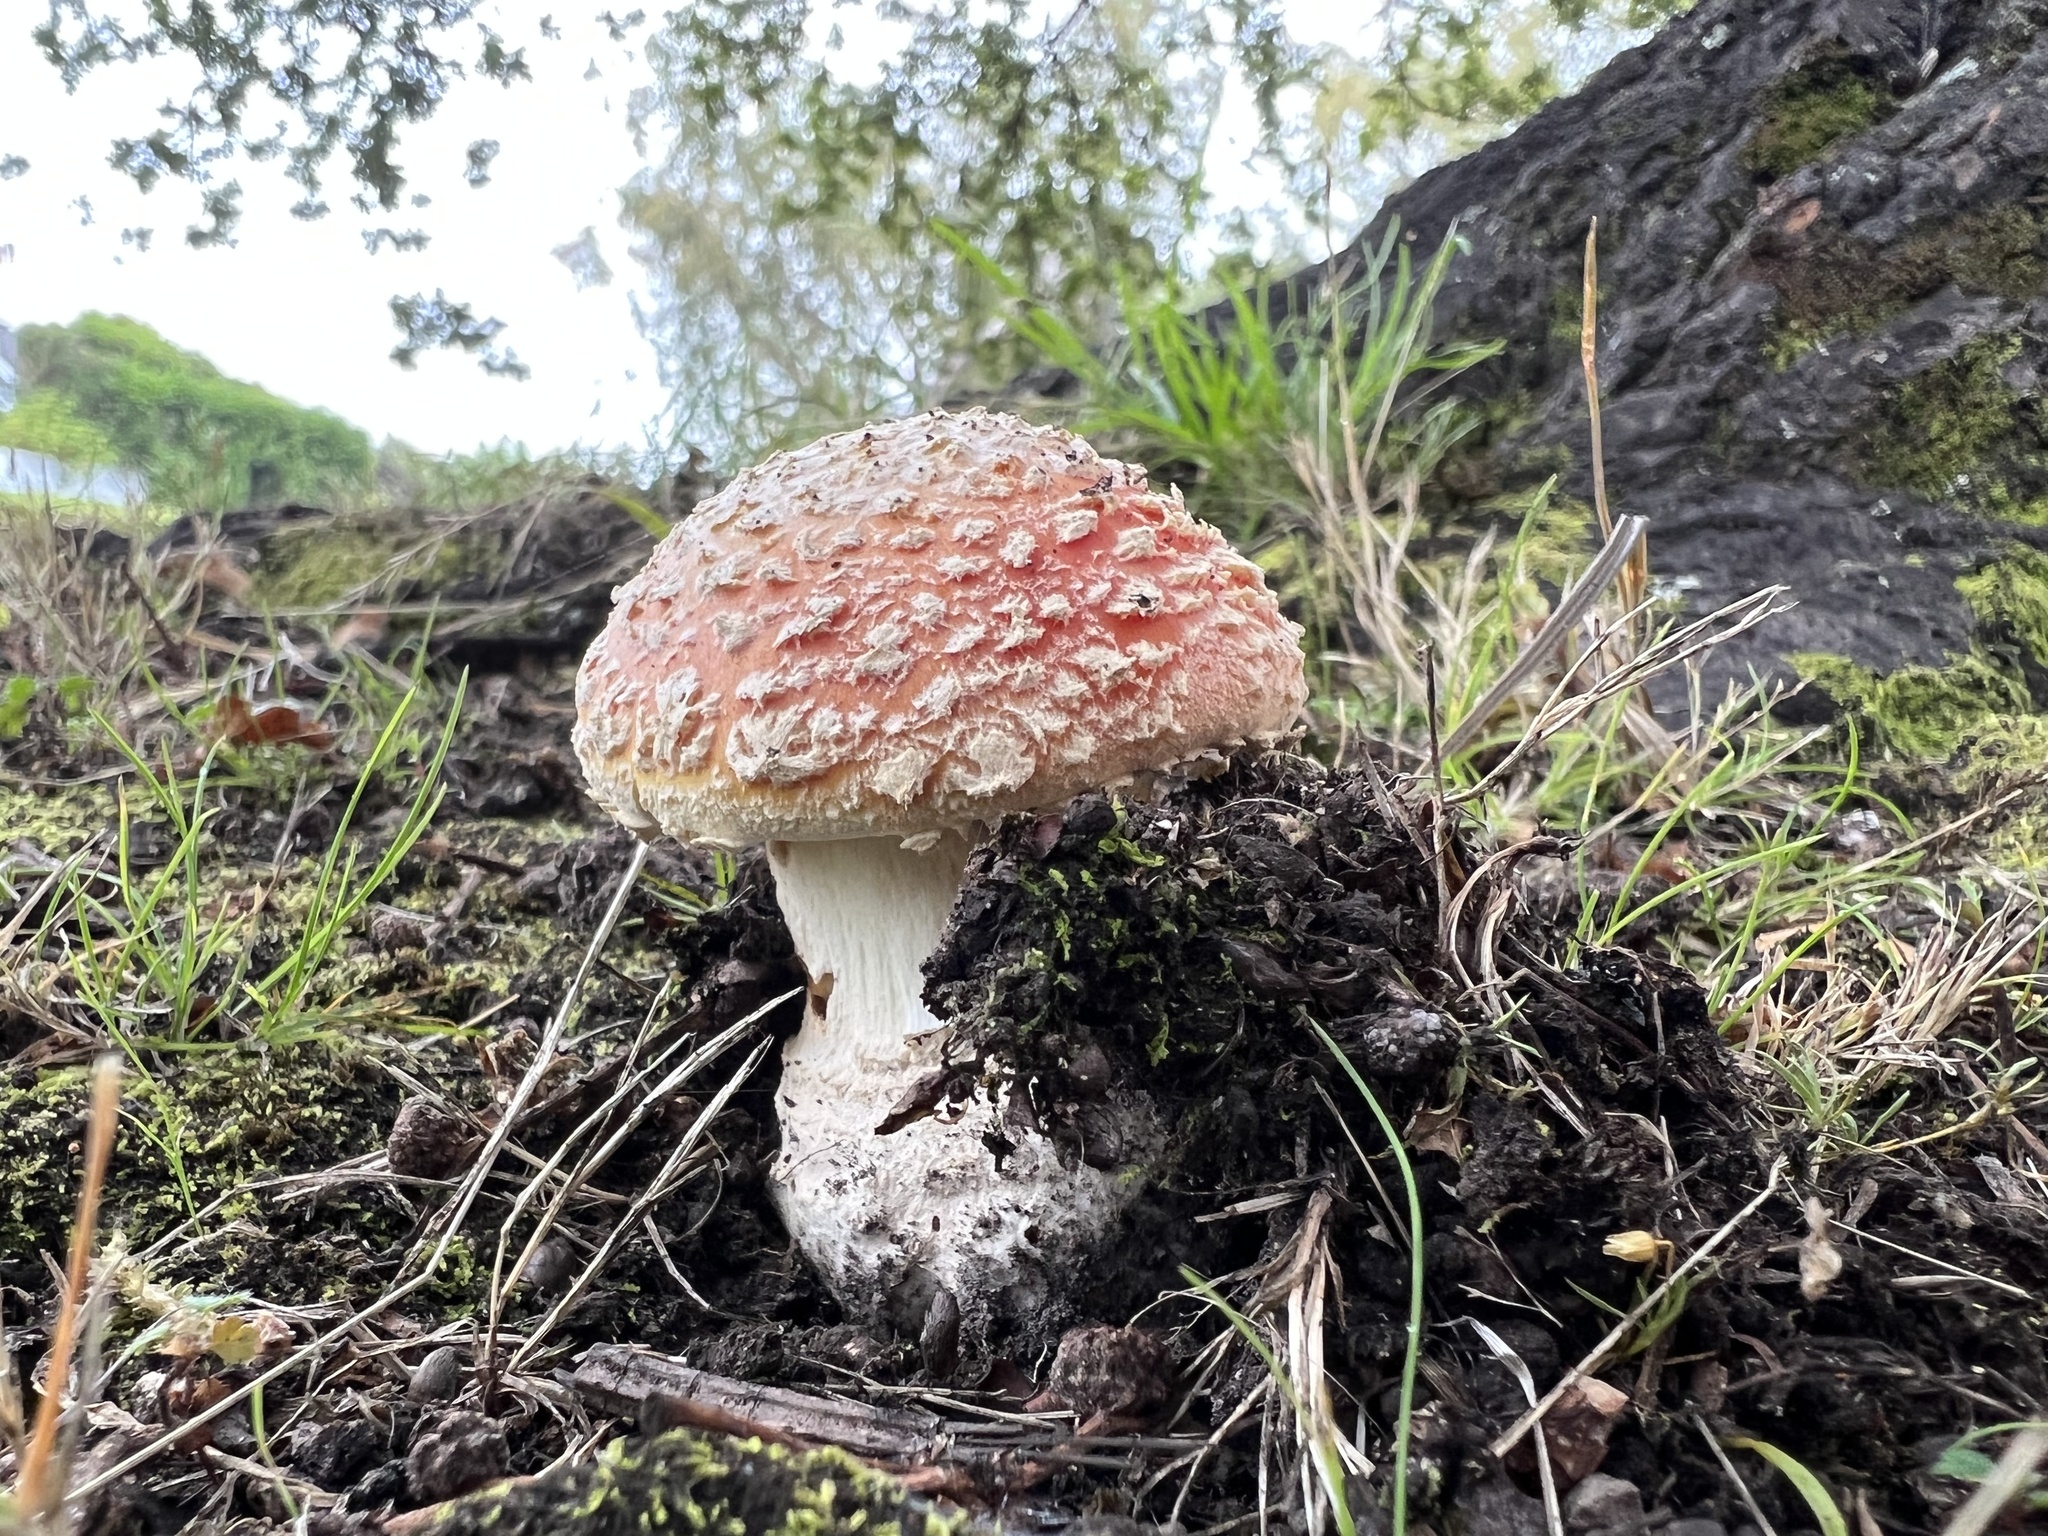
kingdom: Fungi
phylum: Basidiomycota
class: Agaricomycetes
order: Agaricales
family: Amanitaceae
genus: Amanita
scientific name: Amanita muscaria
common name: Fly agaric
